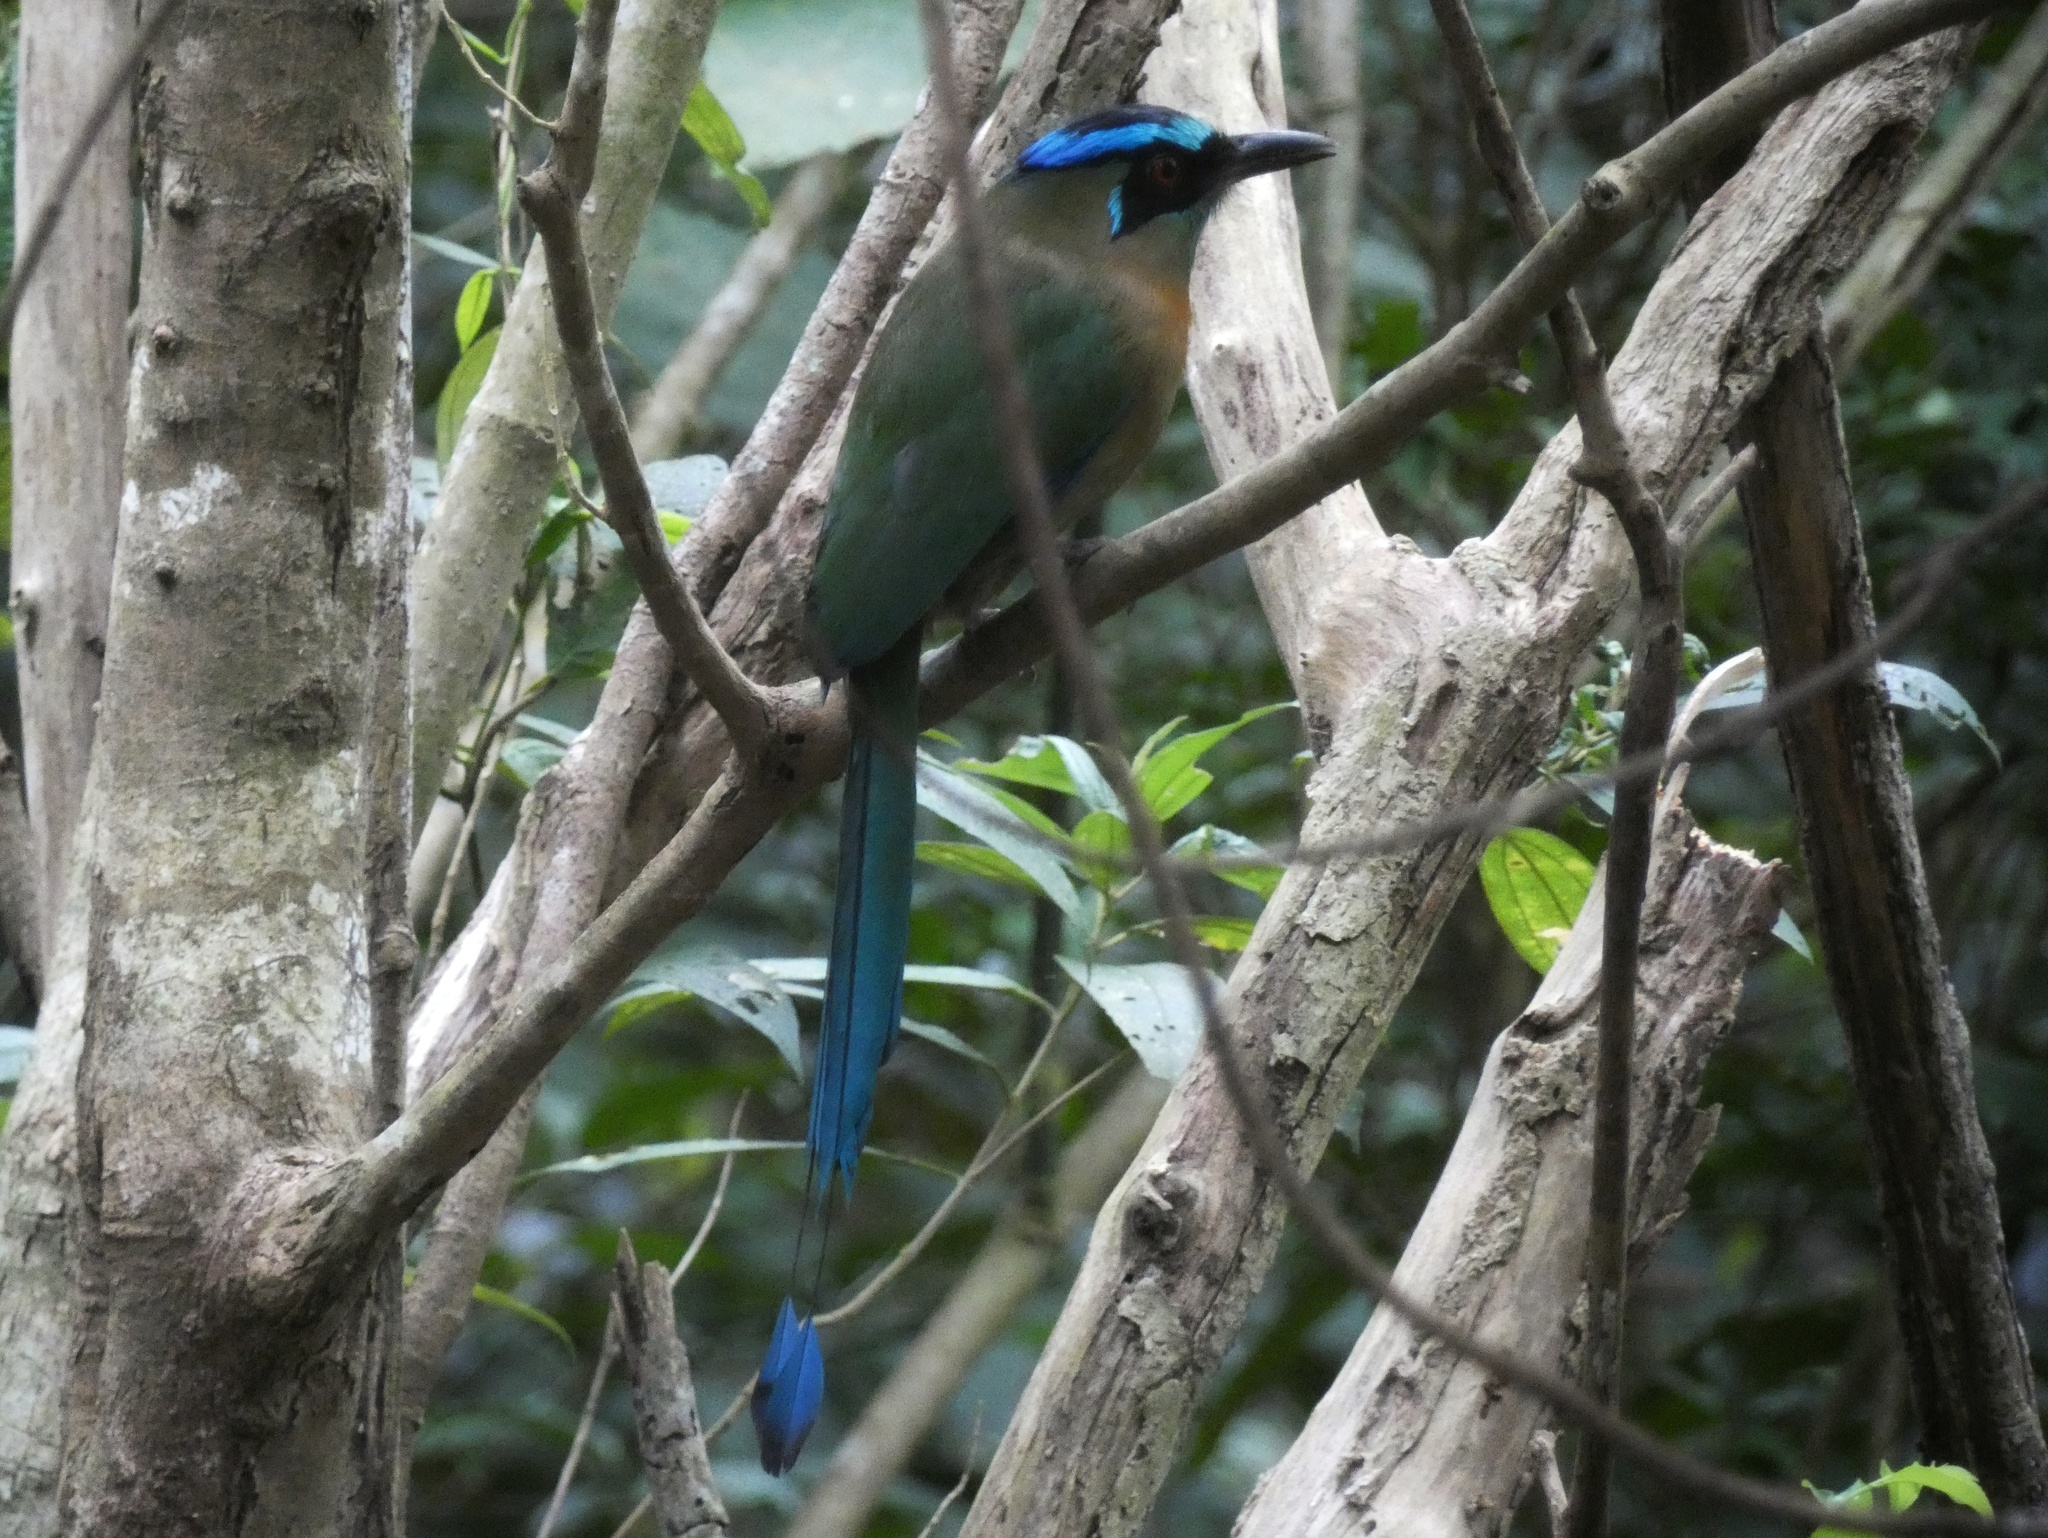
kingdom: Animalia
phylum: Chordata
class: Aves
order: Coraciiformes
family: Momotidae
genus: Momotus
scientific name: Momotus lessonii
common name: Lesson's motmot
